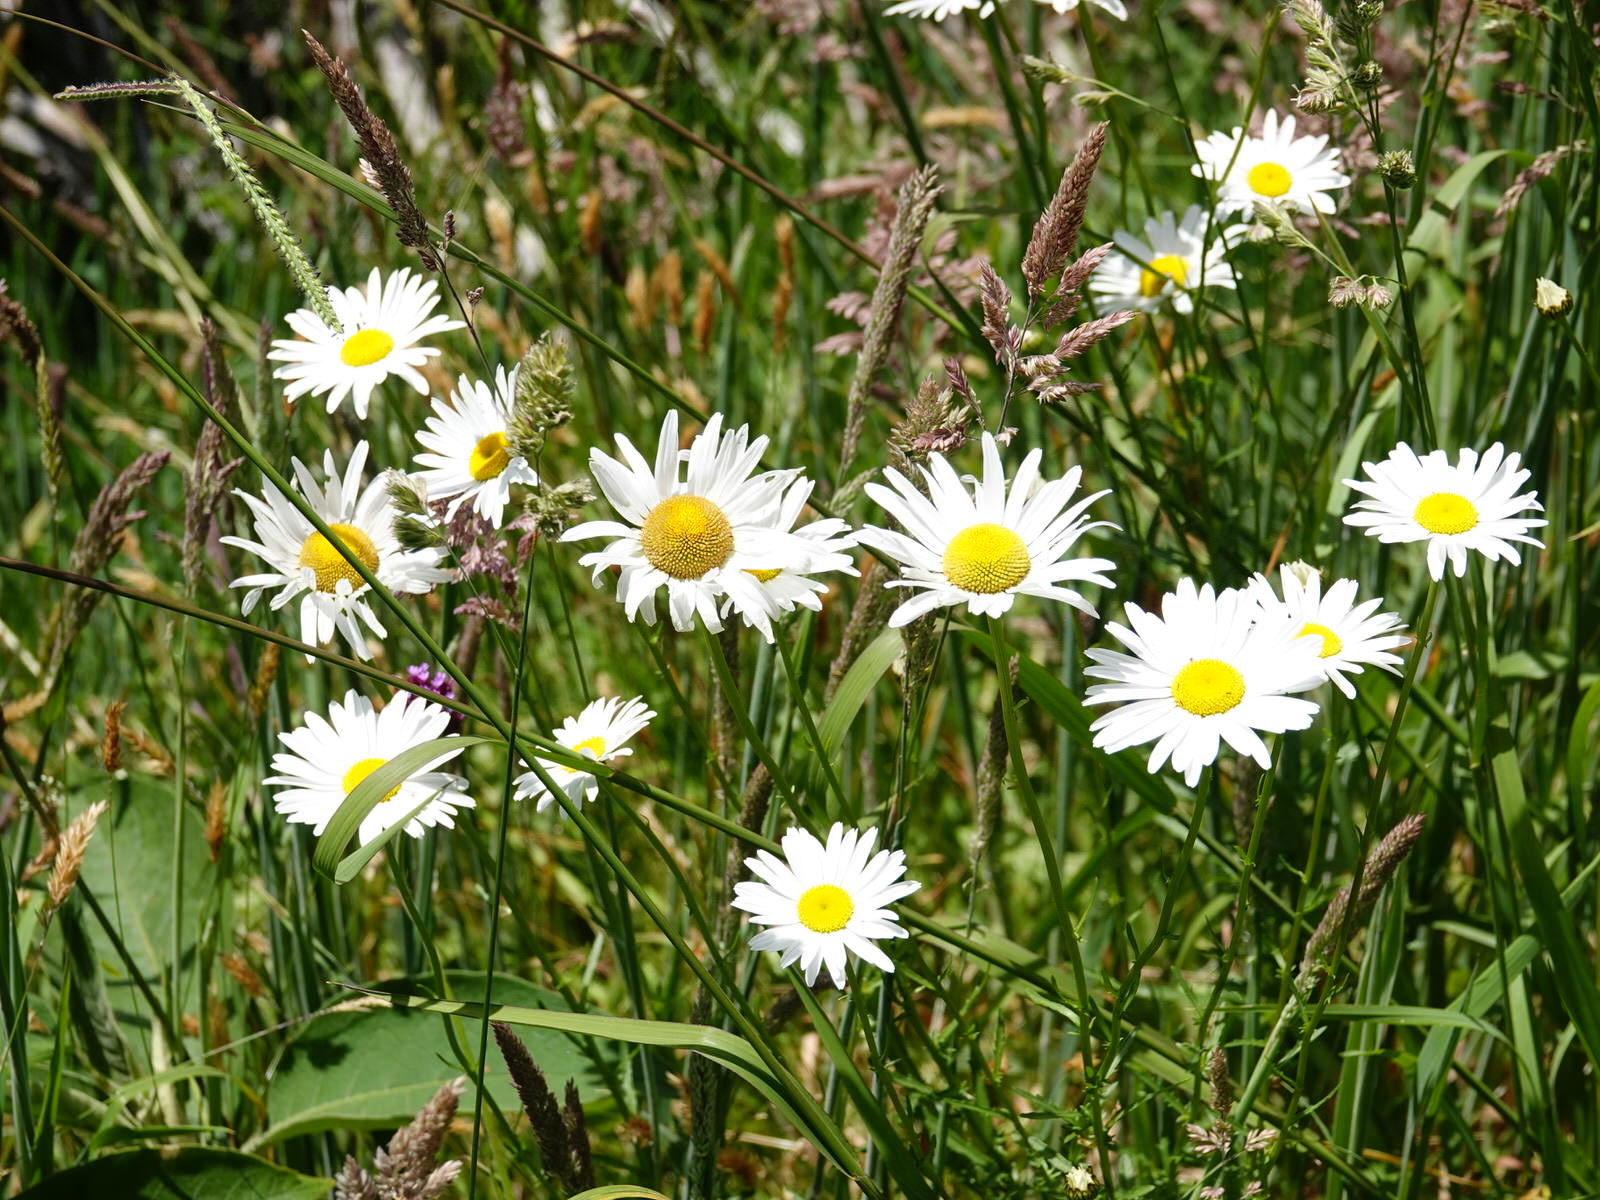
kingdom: Plantae
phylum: Tracheophyta
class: Magnoliopsida
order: Asterales
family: Asteraceae
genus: Leucanthemum
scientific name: Leucanthemum vulgare
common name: Oxeye daisy
